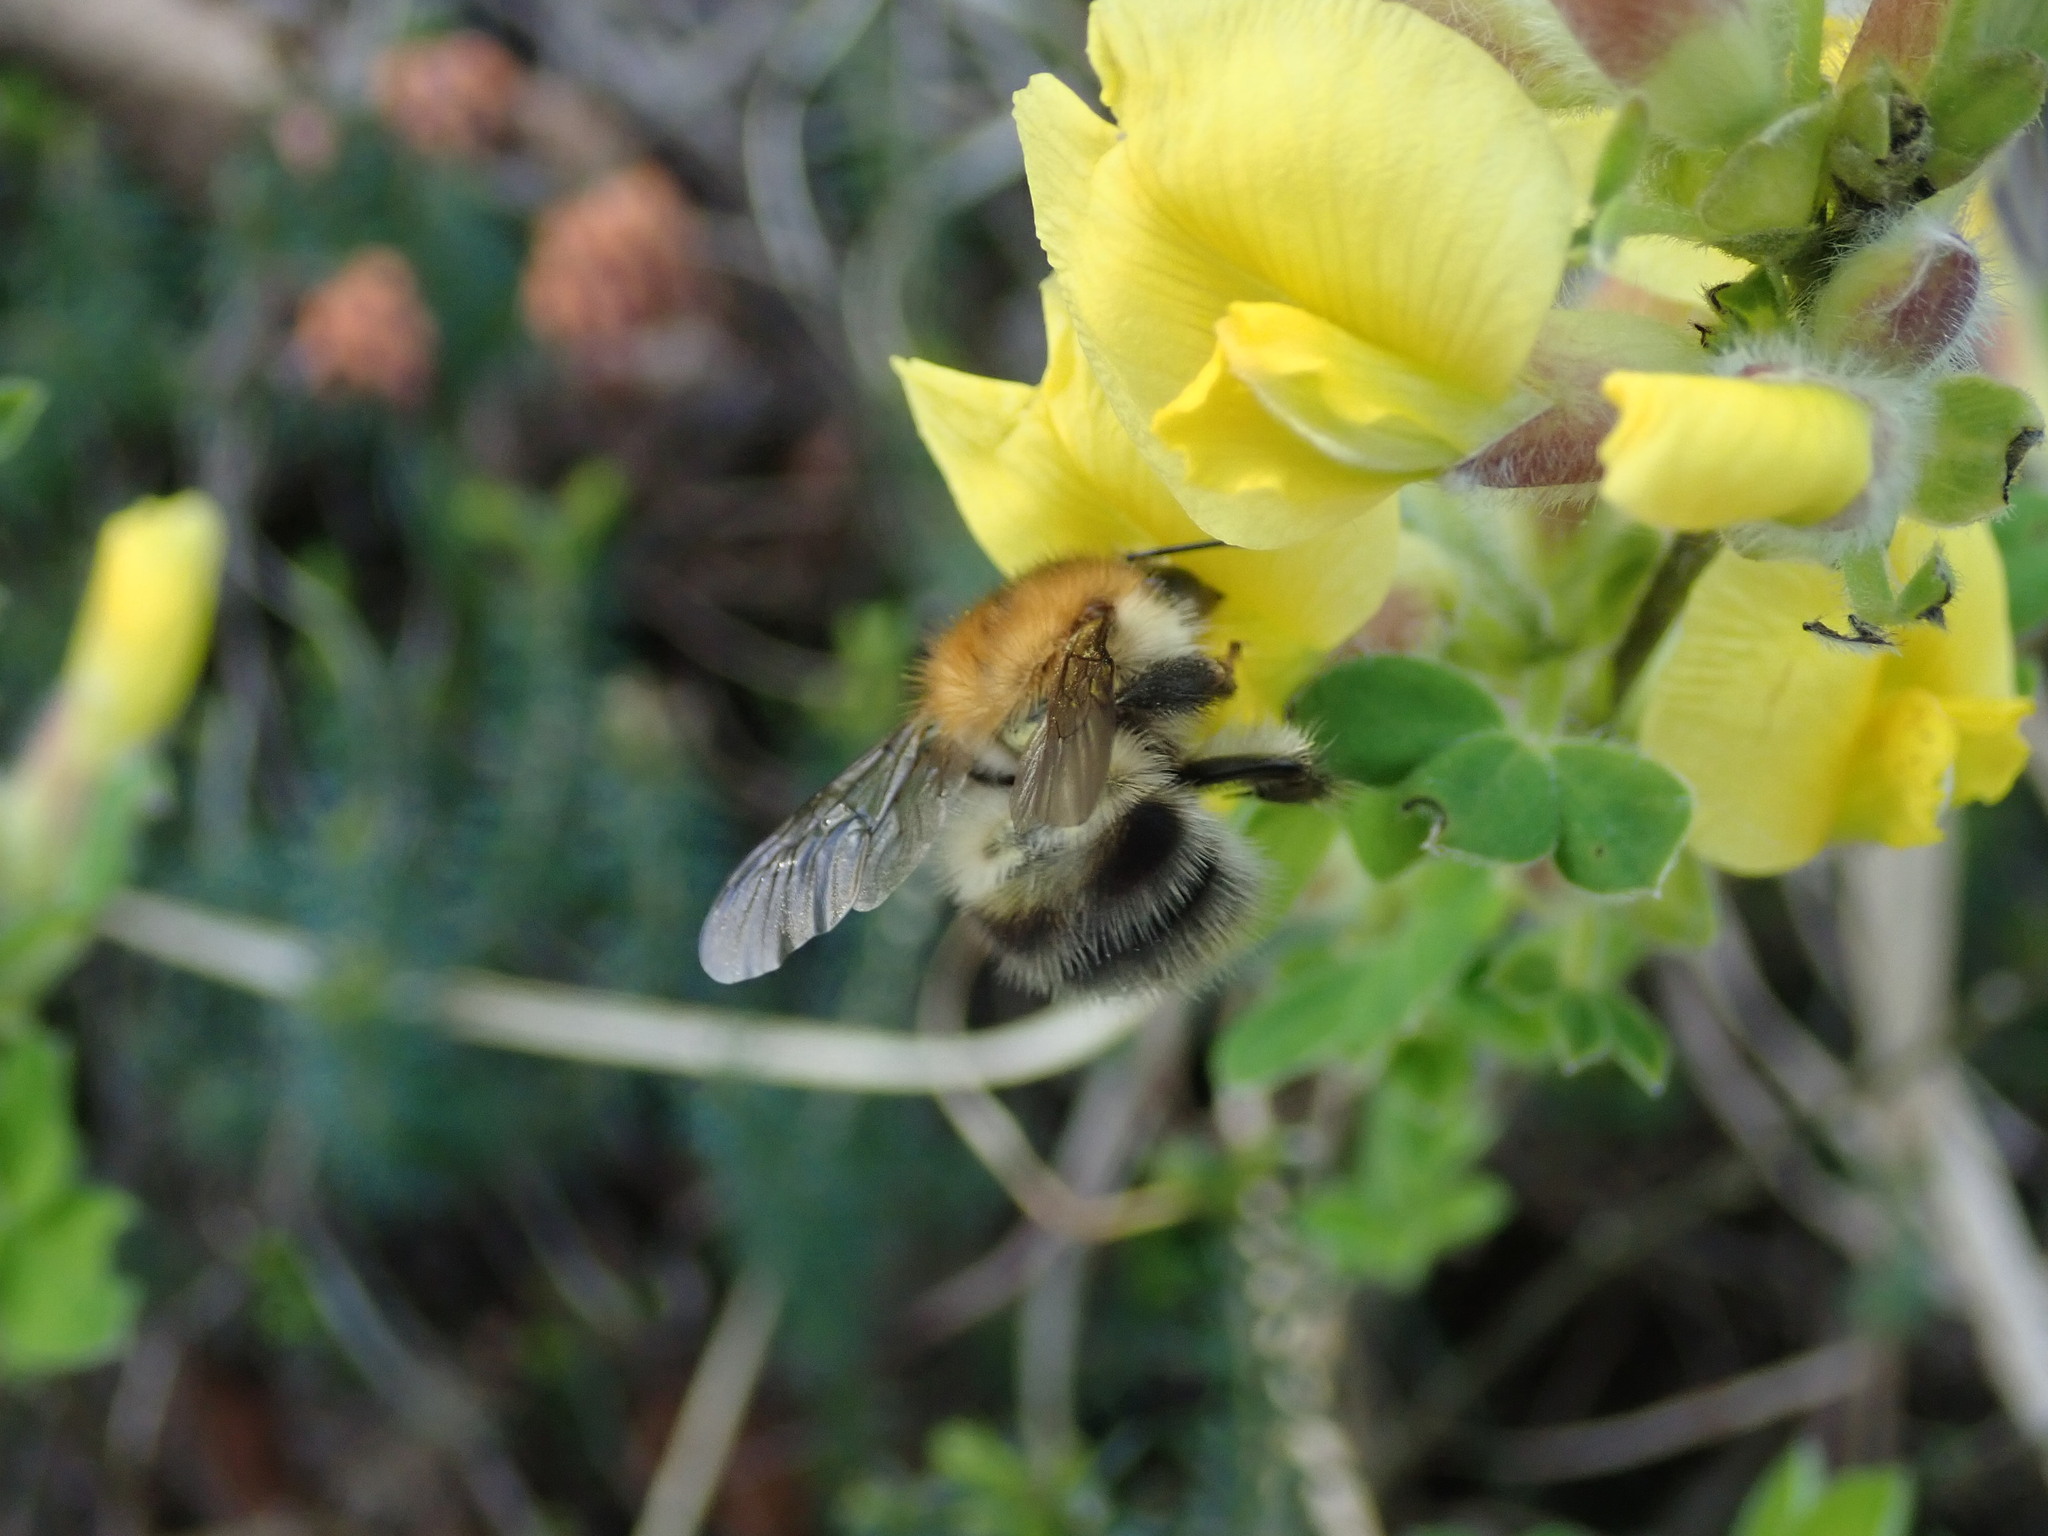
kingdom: Animalia
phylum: Arthropoda
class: Insecta
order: Hymenoptera
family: Apidae
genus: Bombus
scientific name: Bombus pascuorum
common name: Common carder bee
